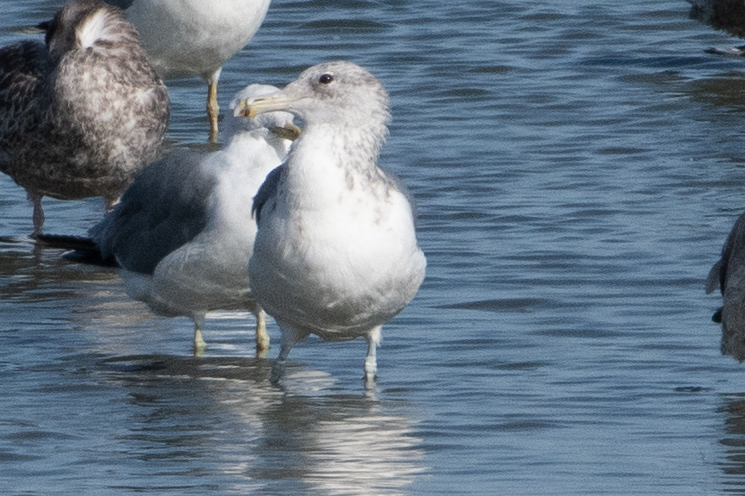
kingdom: Animalia
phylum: Chordata
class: Aves
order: Charadriiformes
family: Laridae
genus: Larus
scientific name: Larus californicus
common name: California gull
